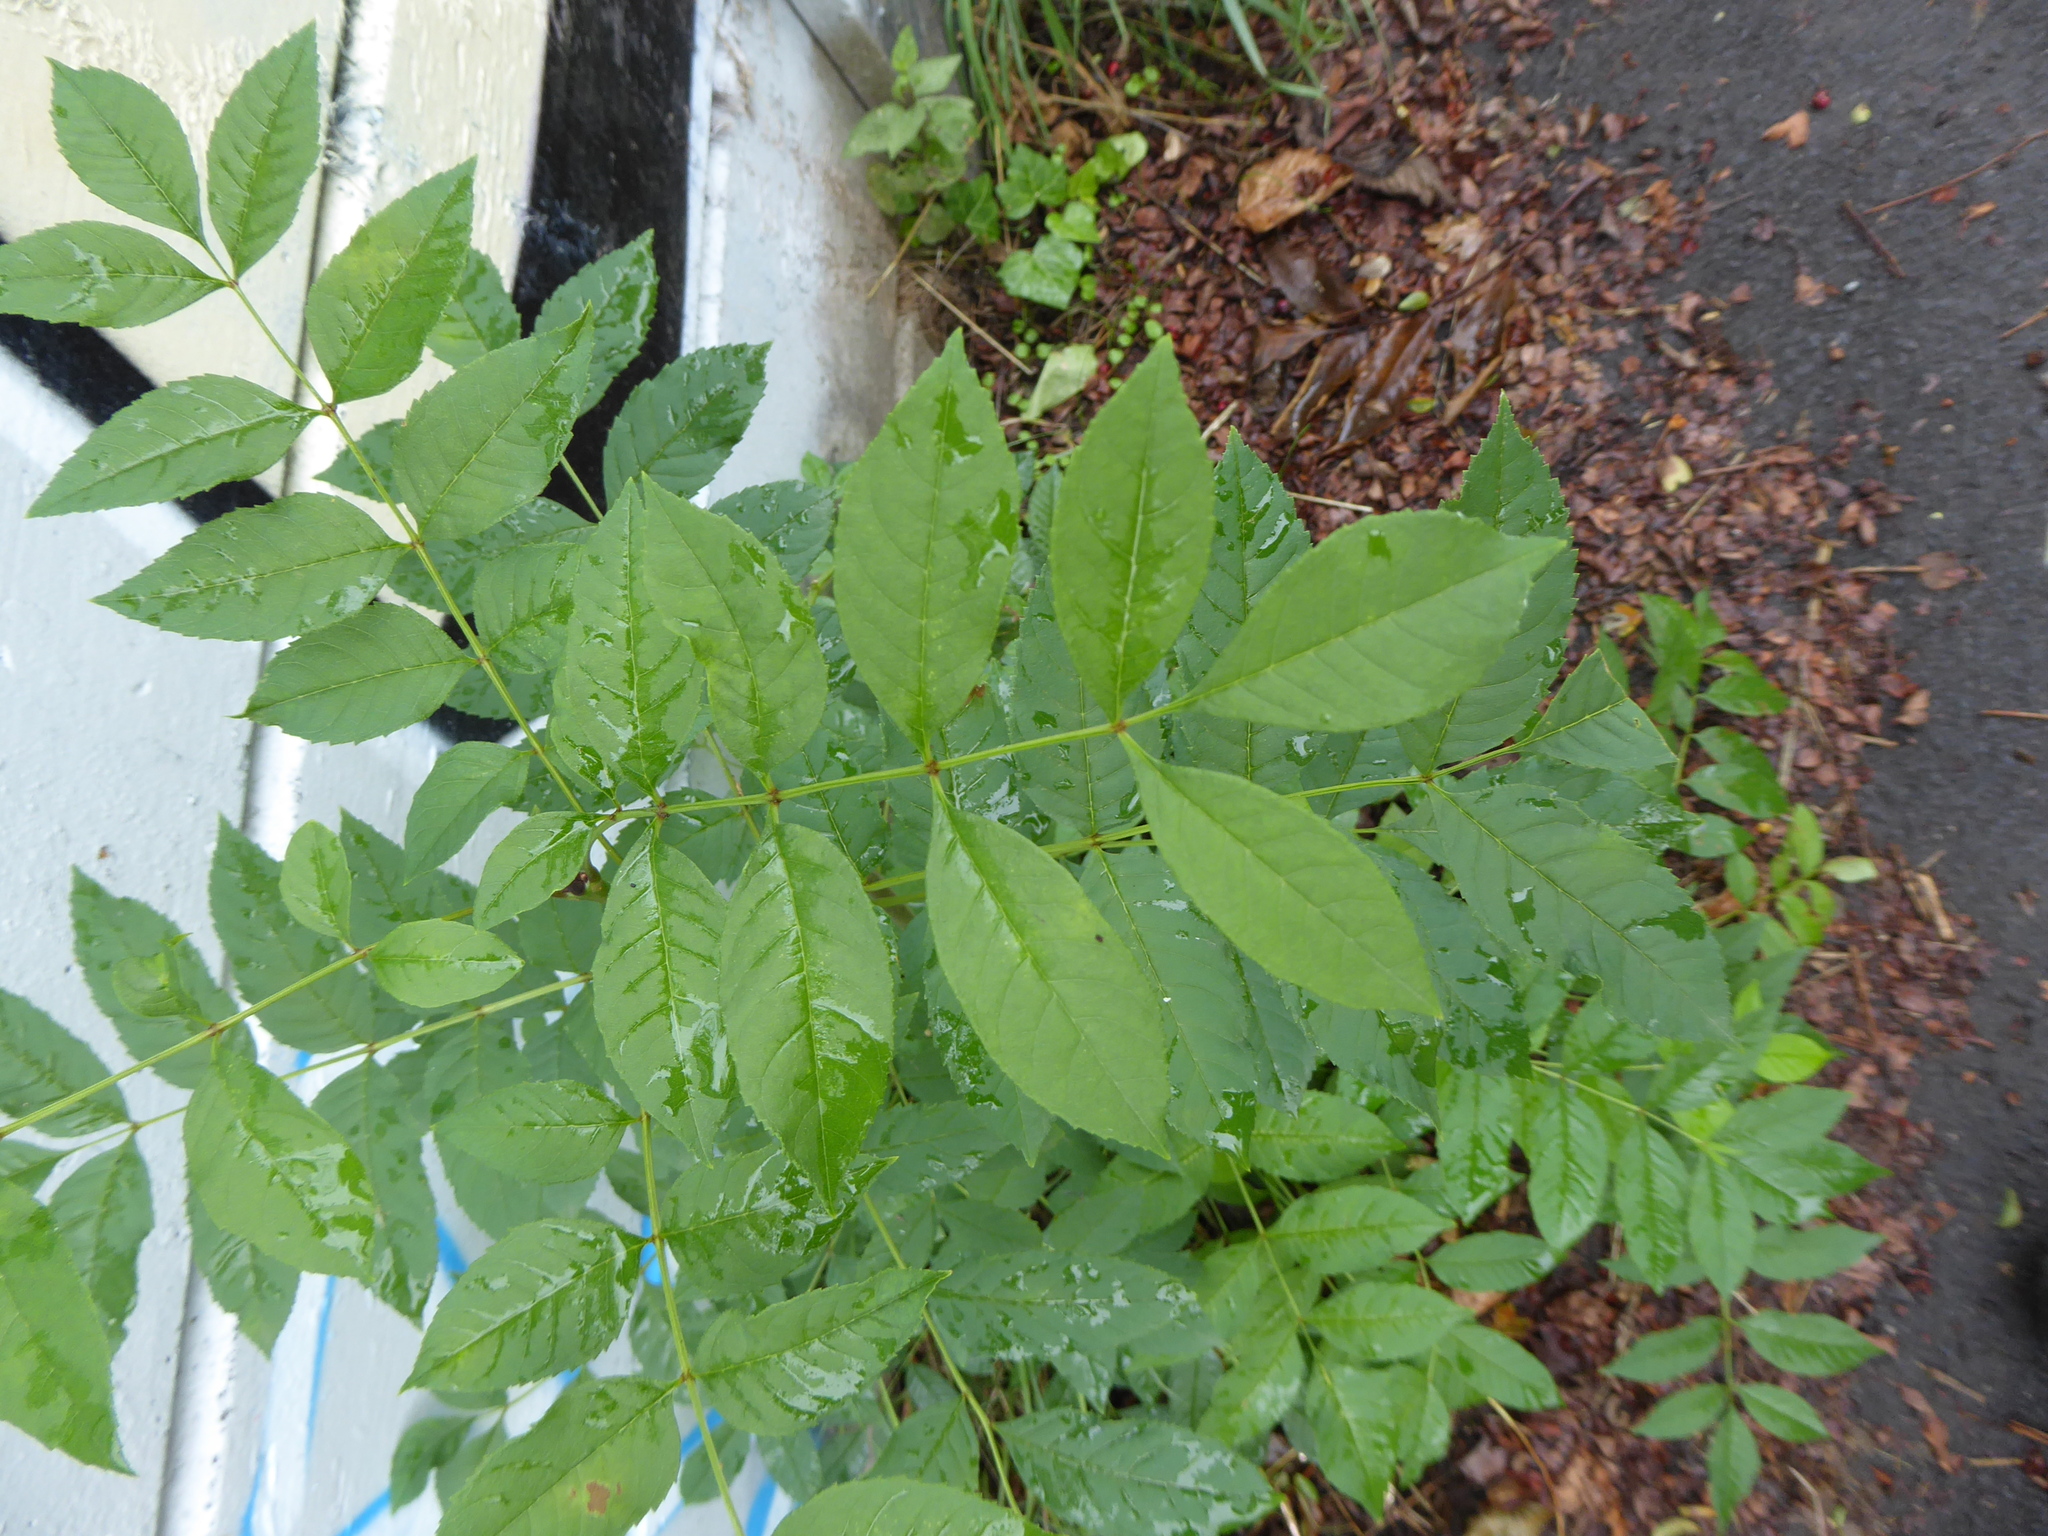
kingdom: Plantae
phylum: Tracheophyta
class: Magnoliopsida
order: Lamiales
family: Oleaceae
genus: Fraxinus
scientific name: Fraxinus excelsior
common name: European ash
